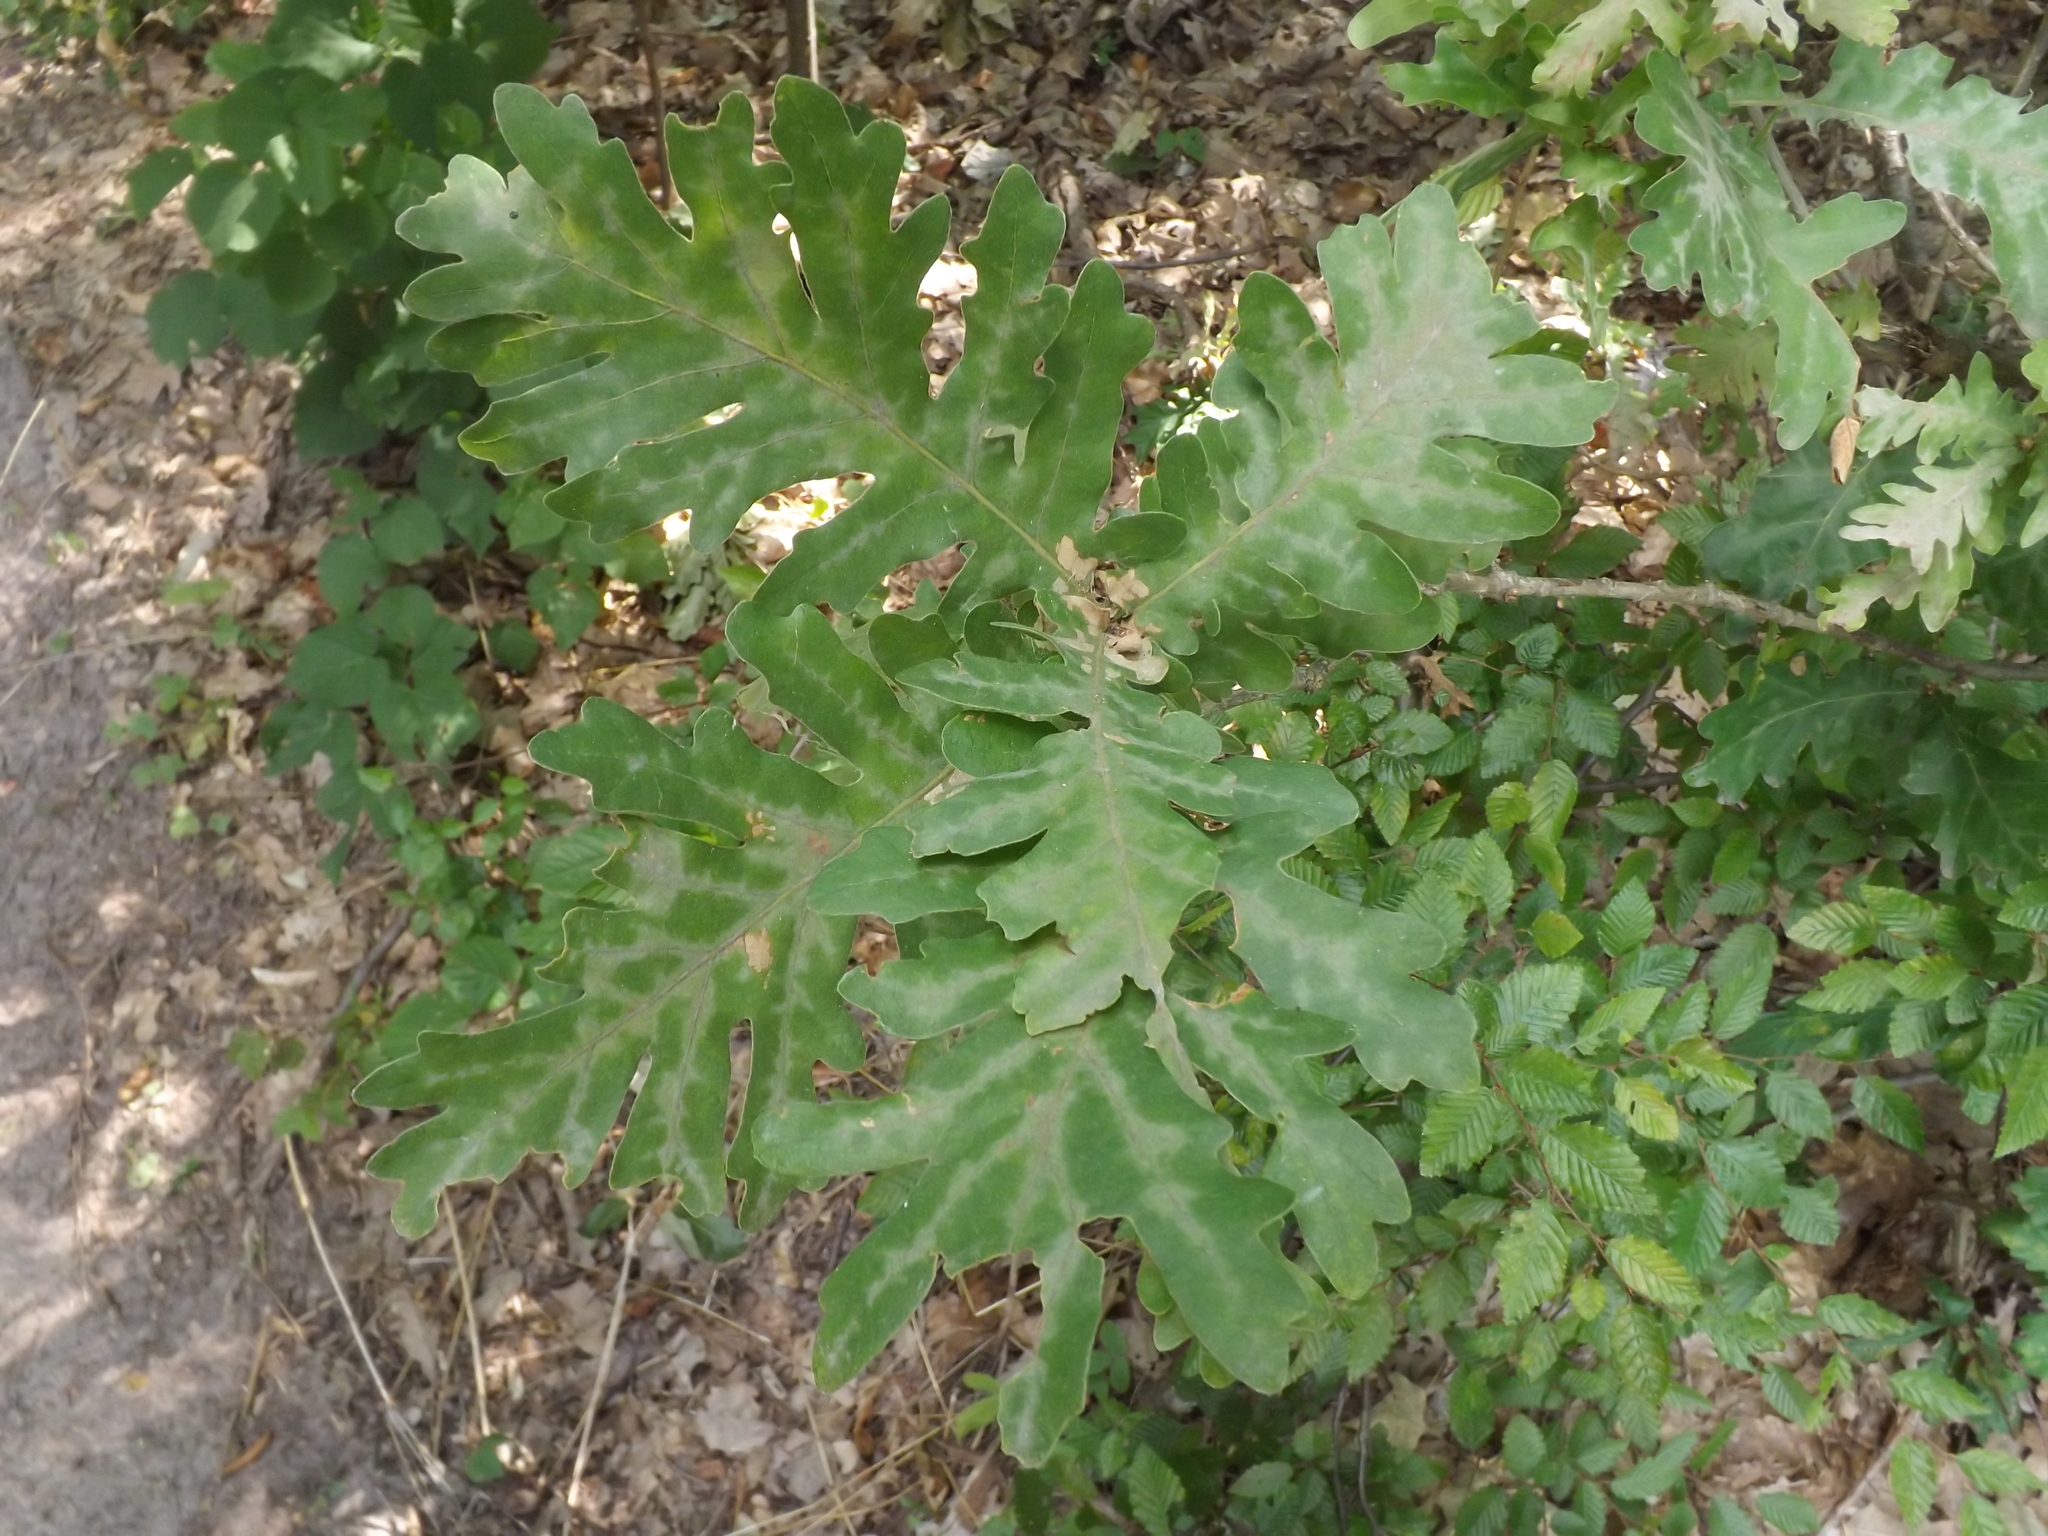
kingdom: Plantae
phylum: Tracheophyta
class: Magnoliopsida
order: Fagales
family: Fagaceae
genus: Quercus
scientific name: Quercus conferta
